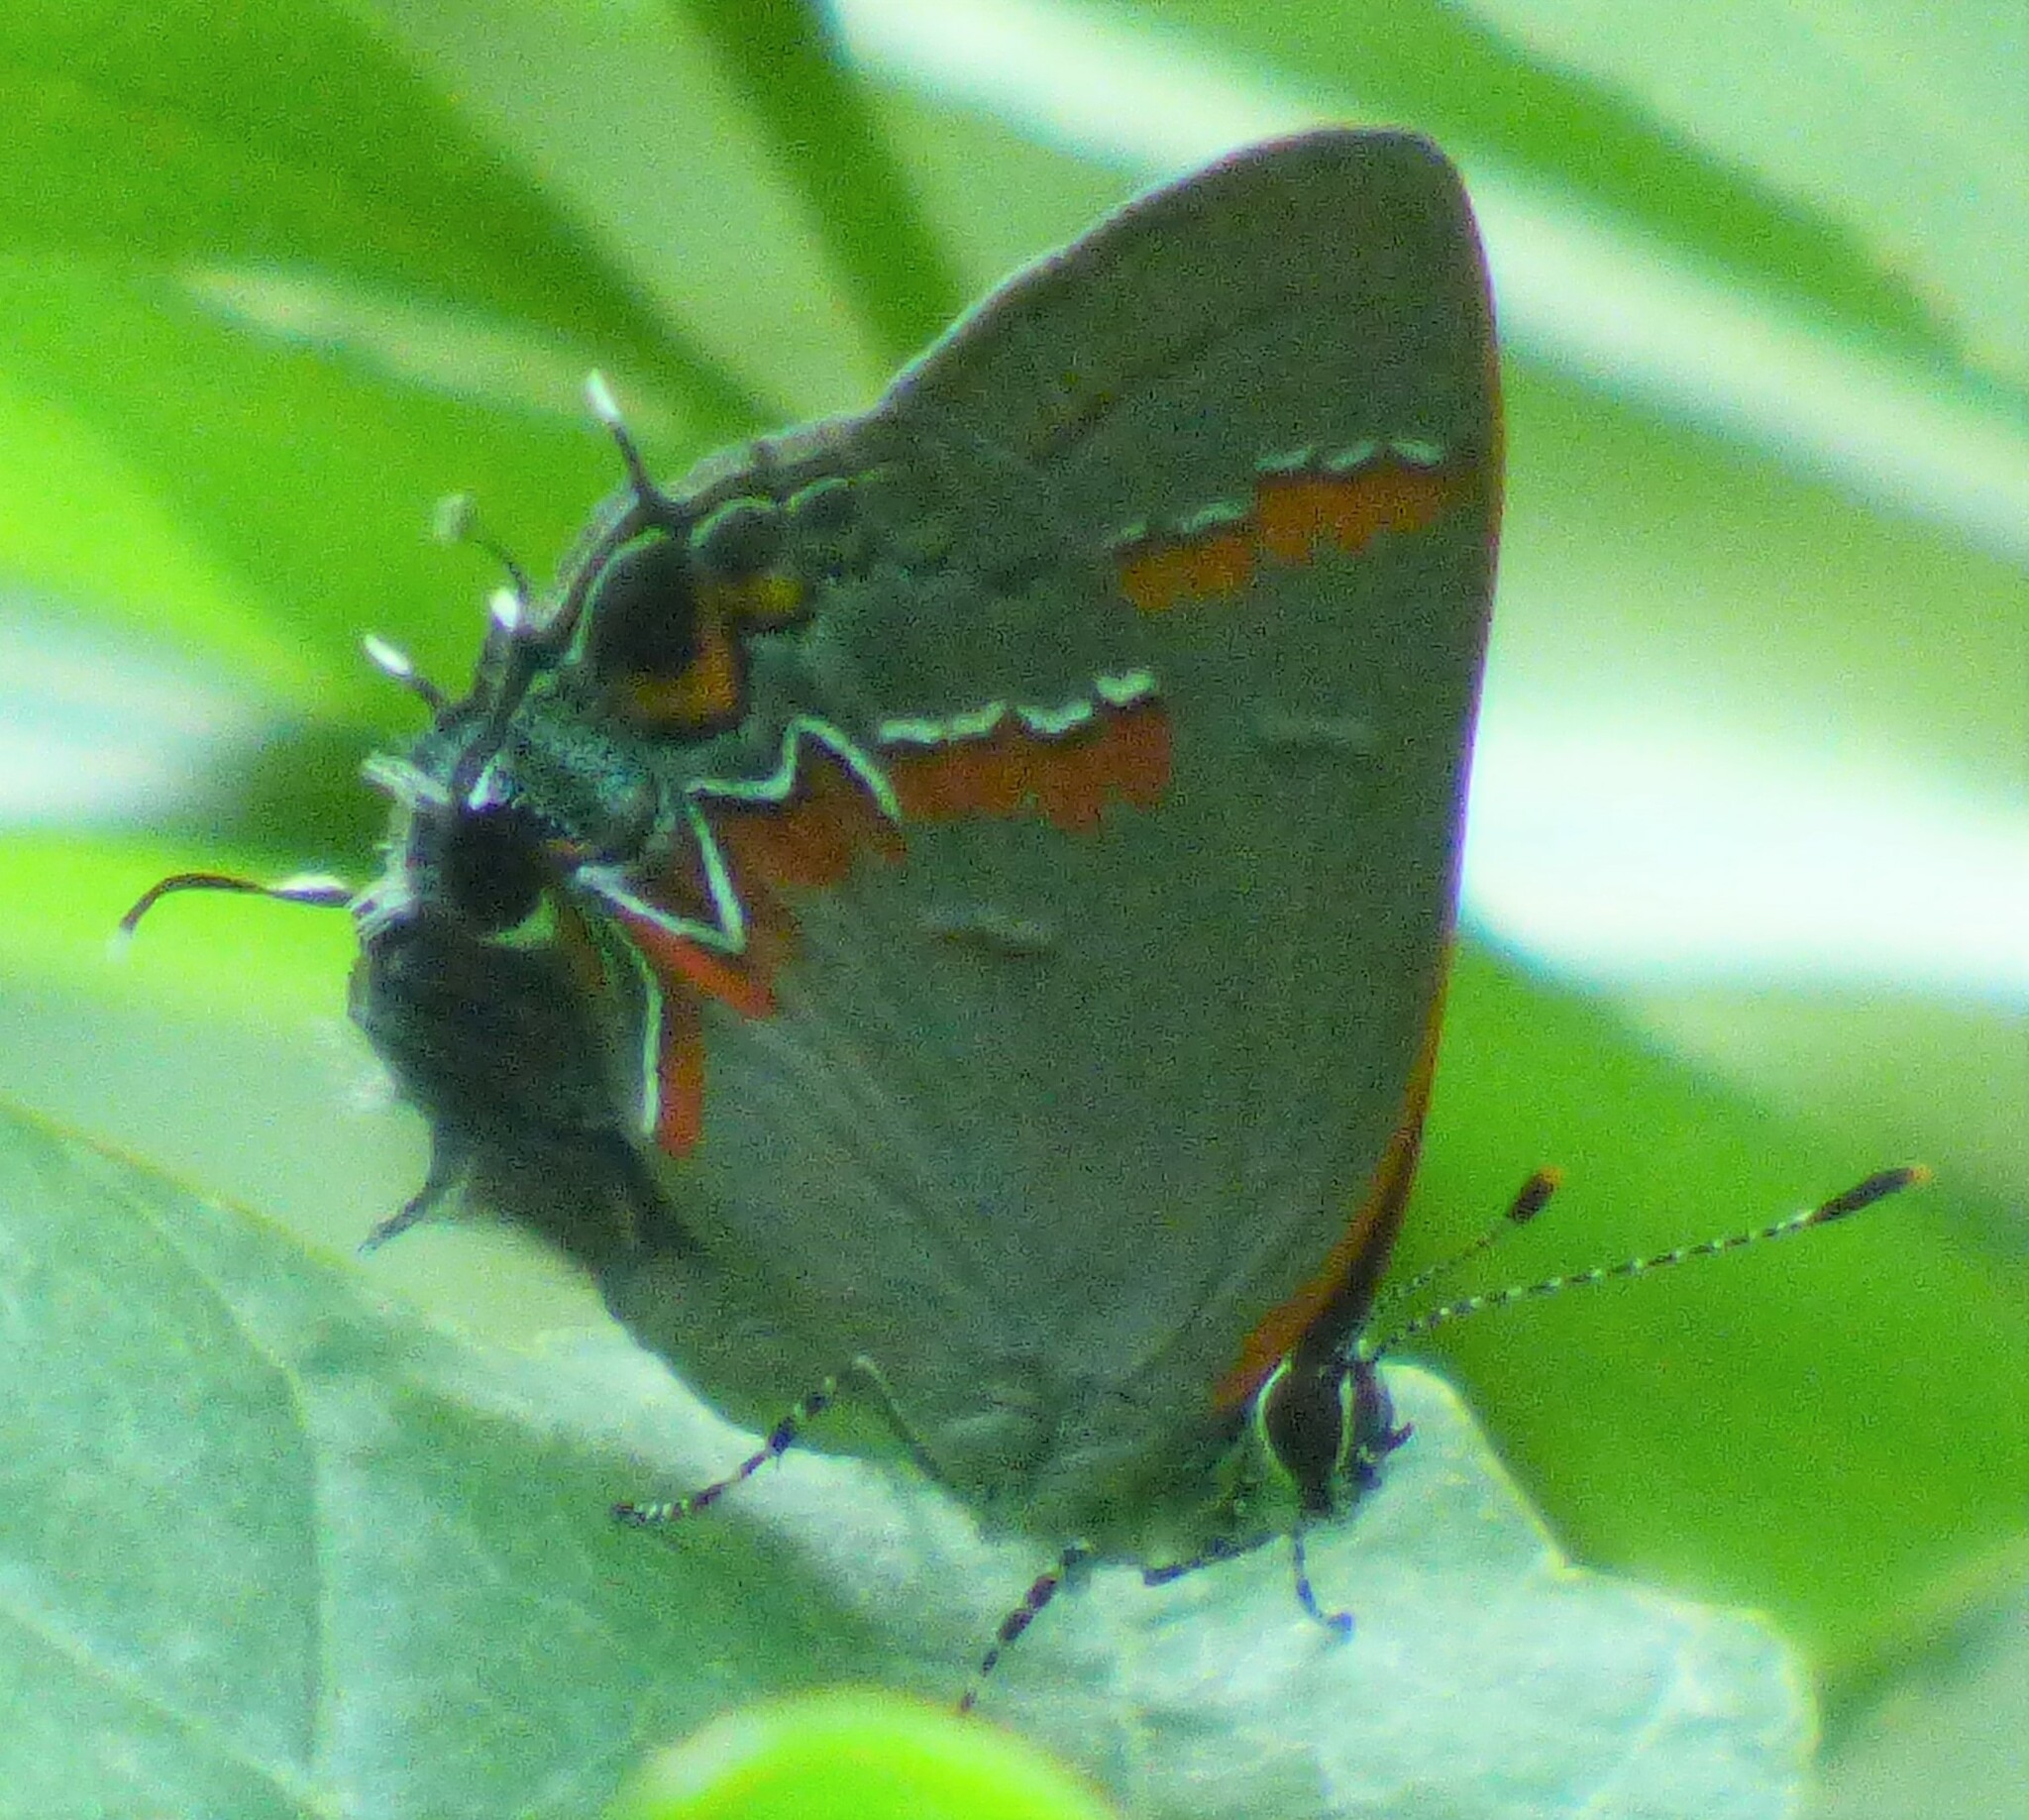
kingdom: Animalia
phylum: Arthropoda
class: Insecta
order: Lepidoptera
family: Lycaenidae
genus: Calycopis
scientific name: Calycopis cecrops
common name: Red-banded hairstreak
